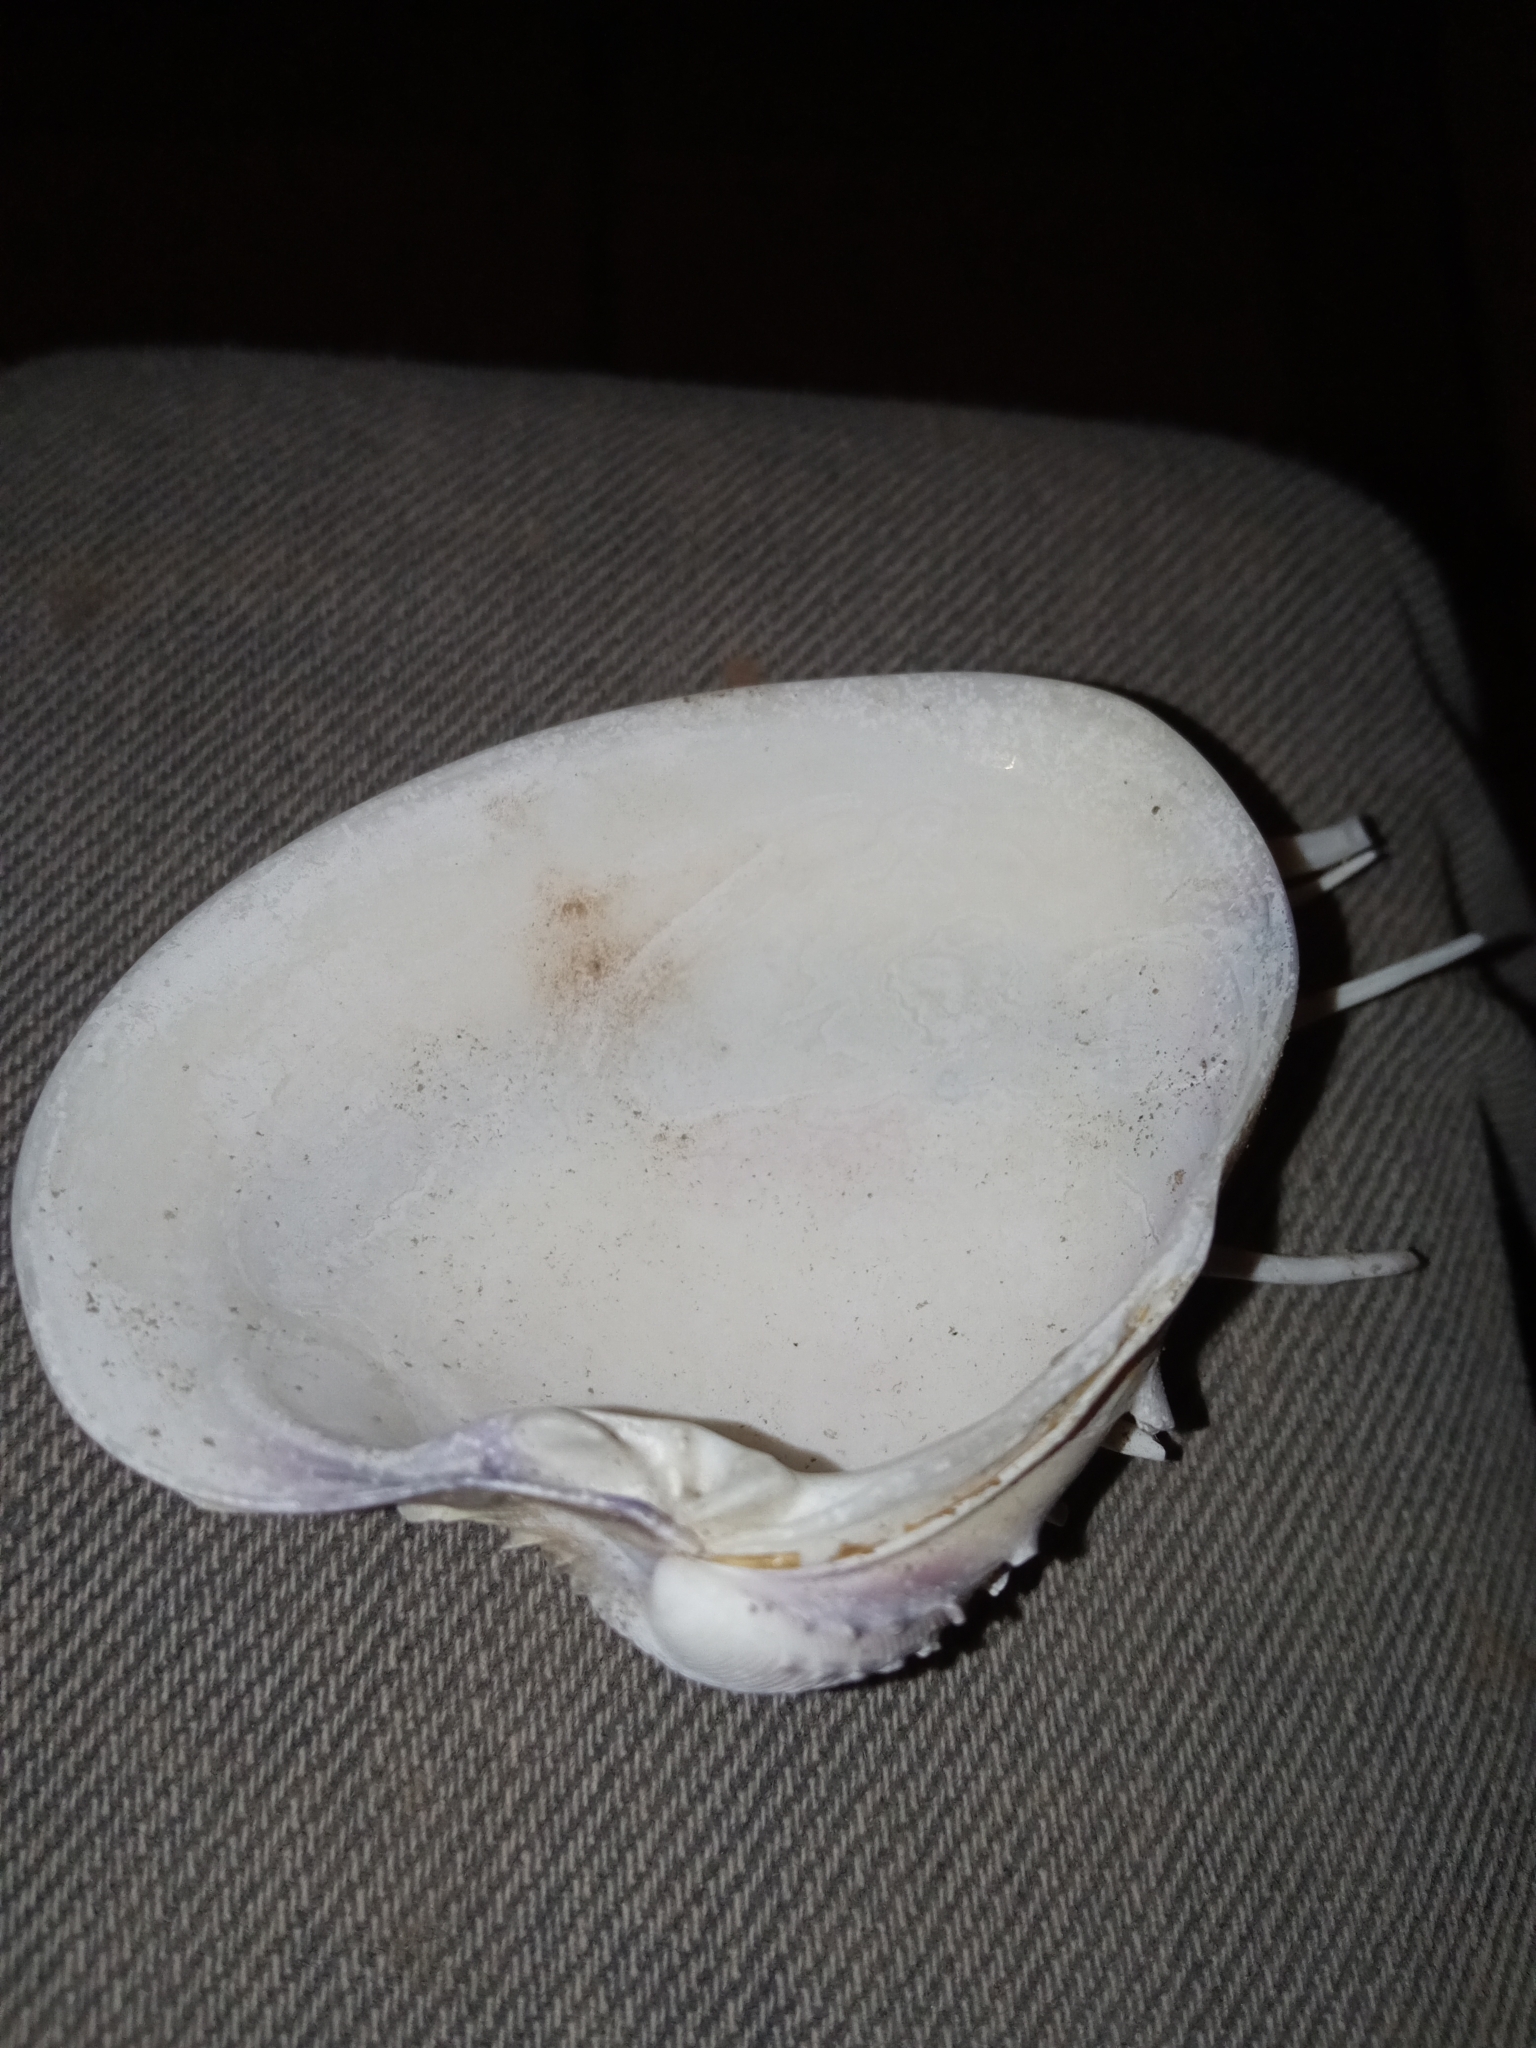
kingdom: Animalia
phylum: Mollusca
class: Bivalvia
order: Venerida
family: Veneridae
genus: Hysteroconcha
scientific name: Hysteroconcha lupanaria
